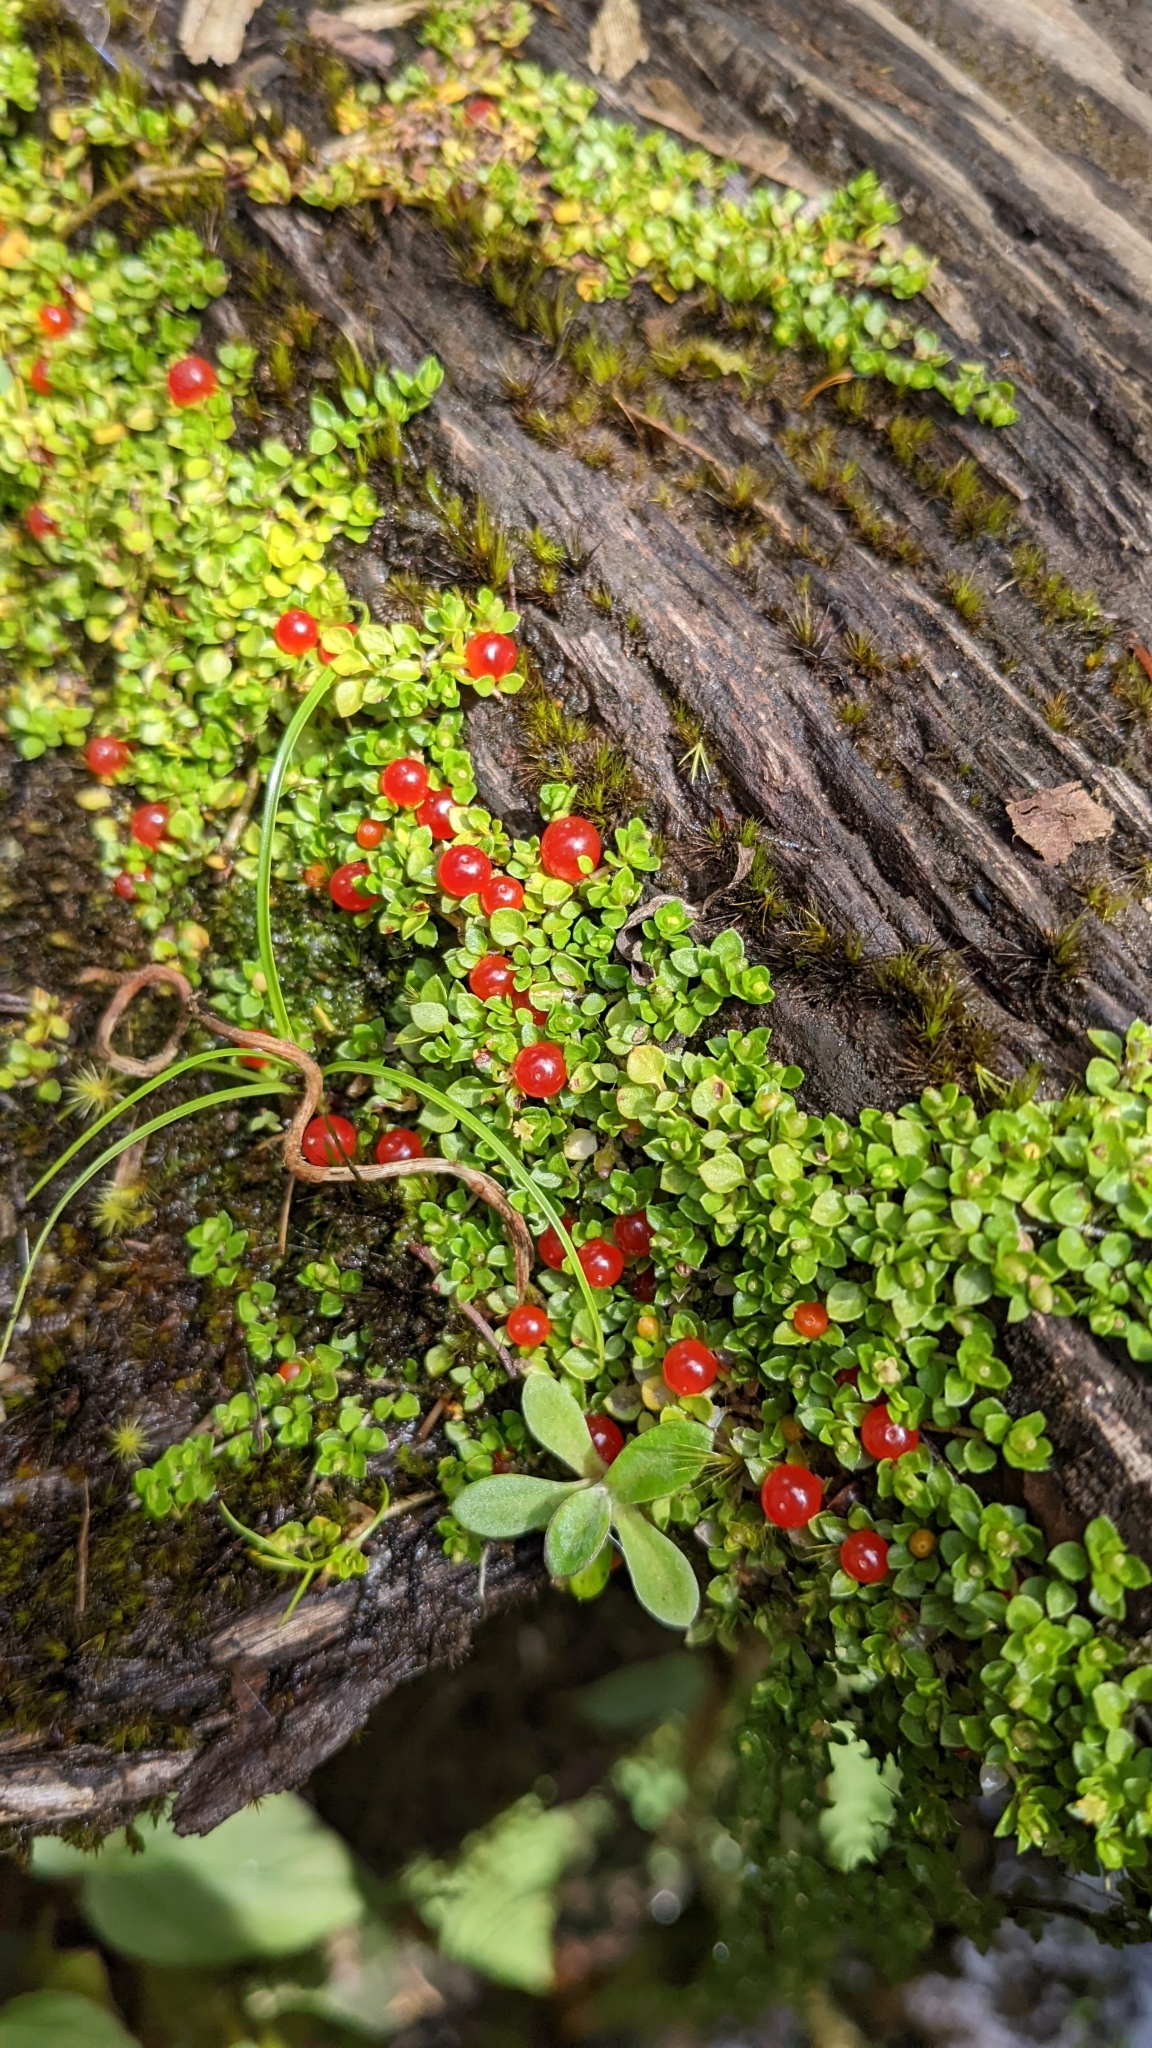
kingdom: Plantae
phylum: Tracheophyta
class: Magnoliopsida
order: Gentianales
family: Rubiaceae
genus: Nertera
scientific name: Nertera granadensis
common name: Beadplant
